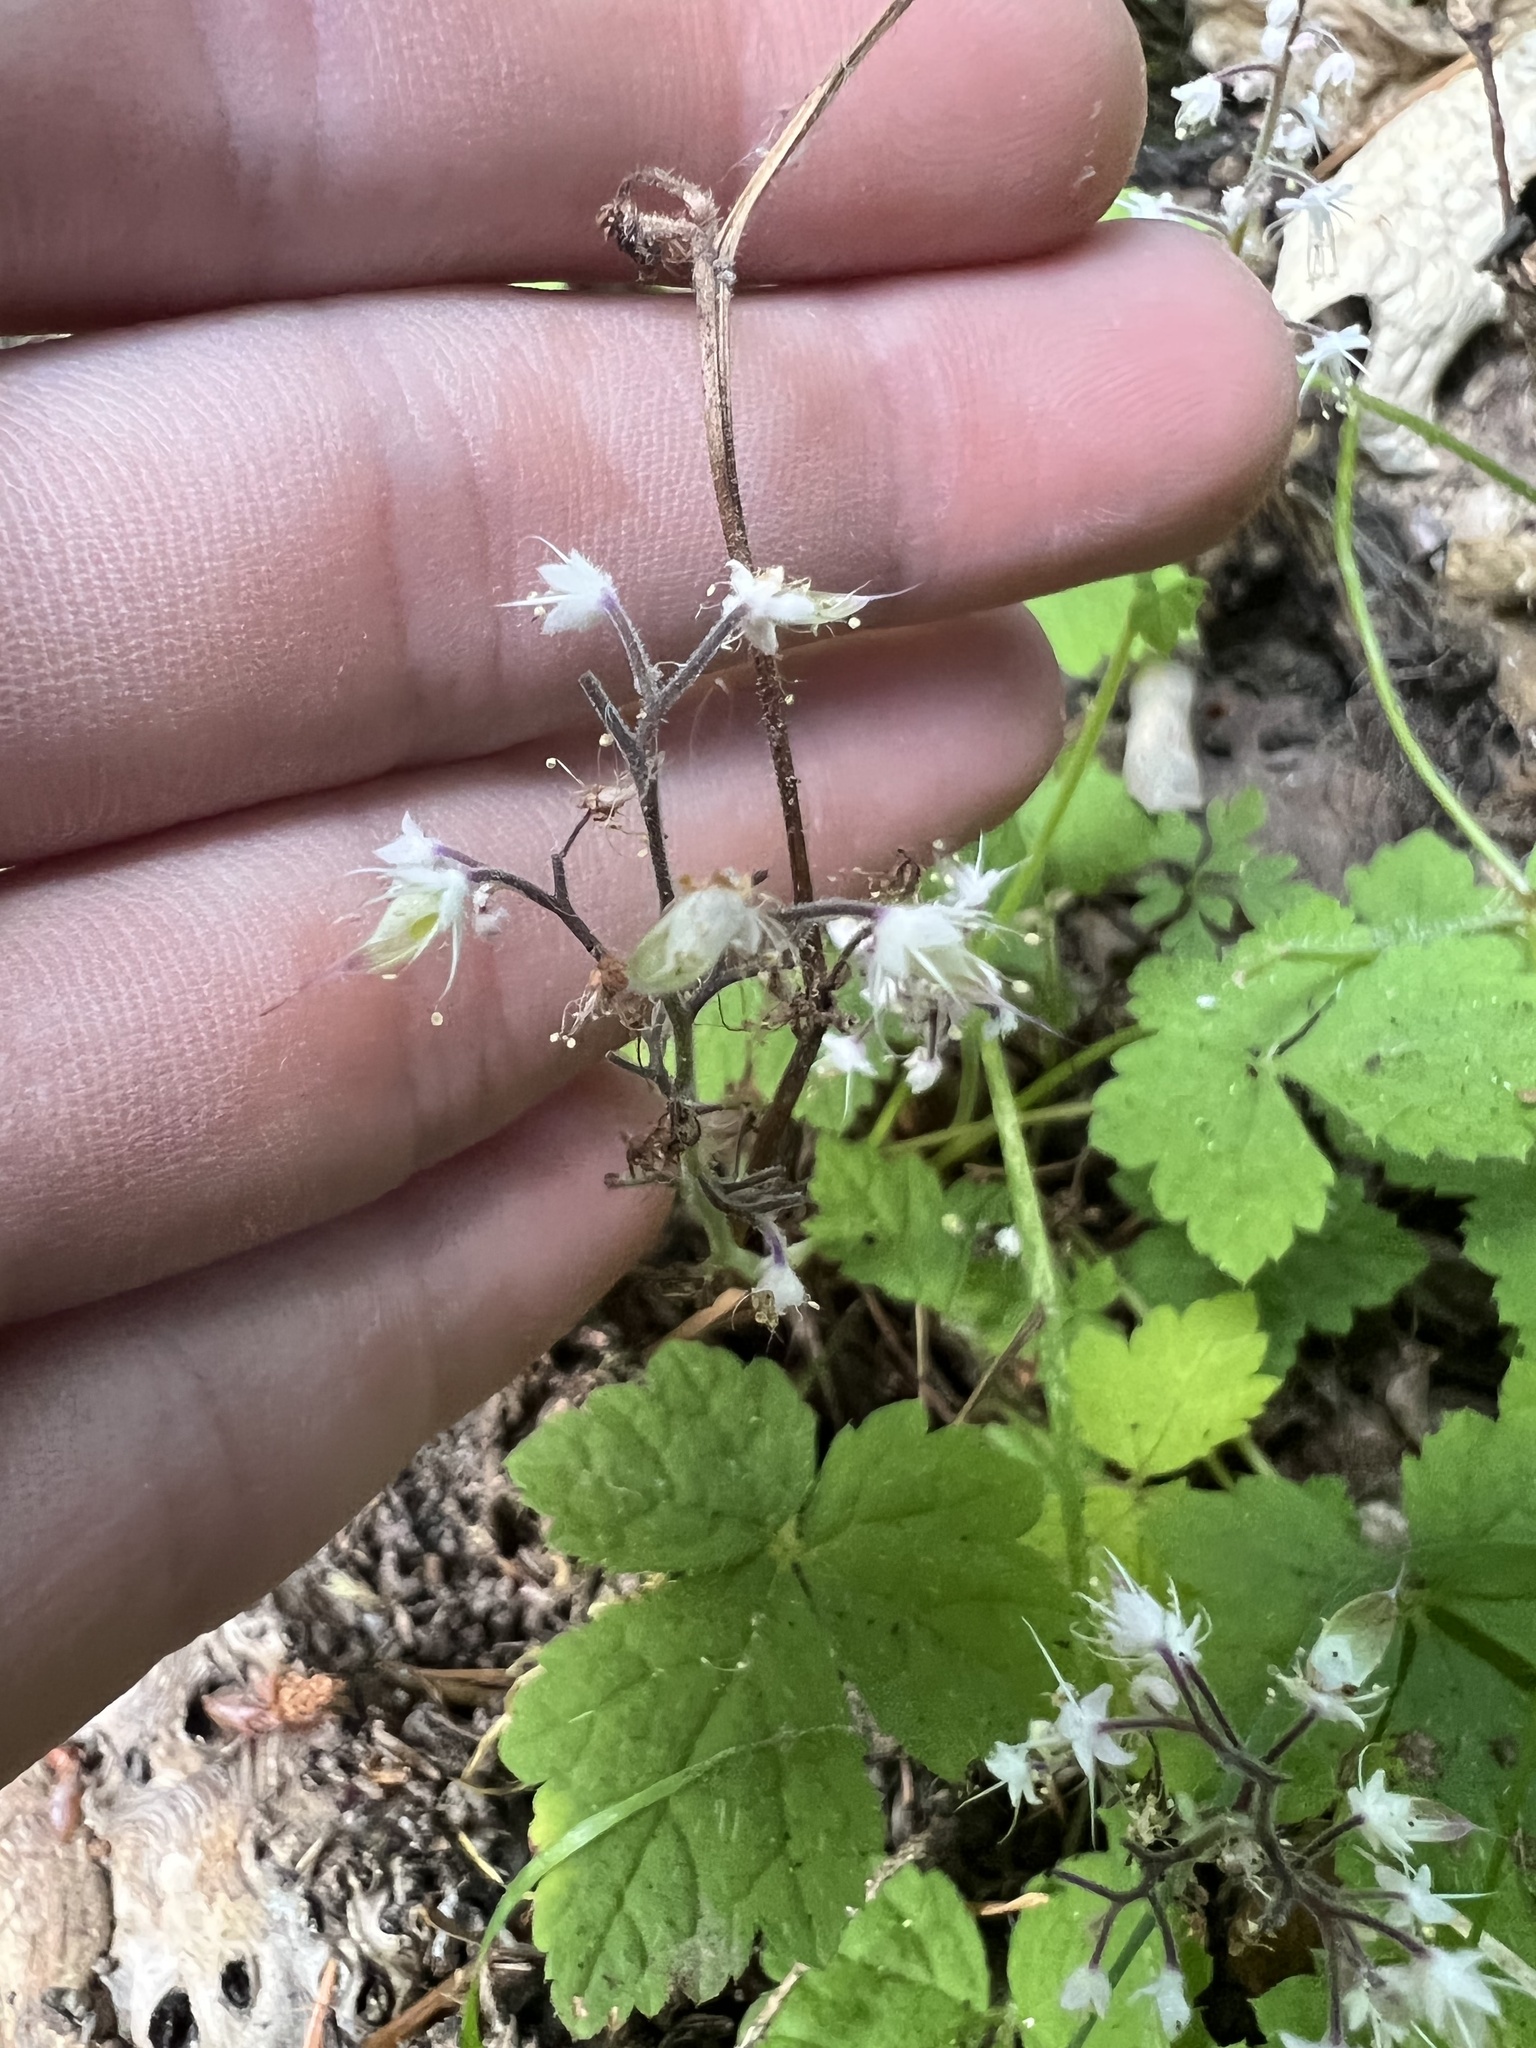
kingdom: Plantae
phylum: Tracheophyta
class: Magnoliopsida
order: Saxifragales
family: Saxifragaceae
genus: Tiarella
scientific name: Tiarella trifoliata
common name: Sugar-scoop
